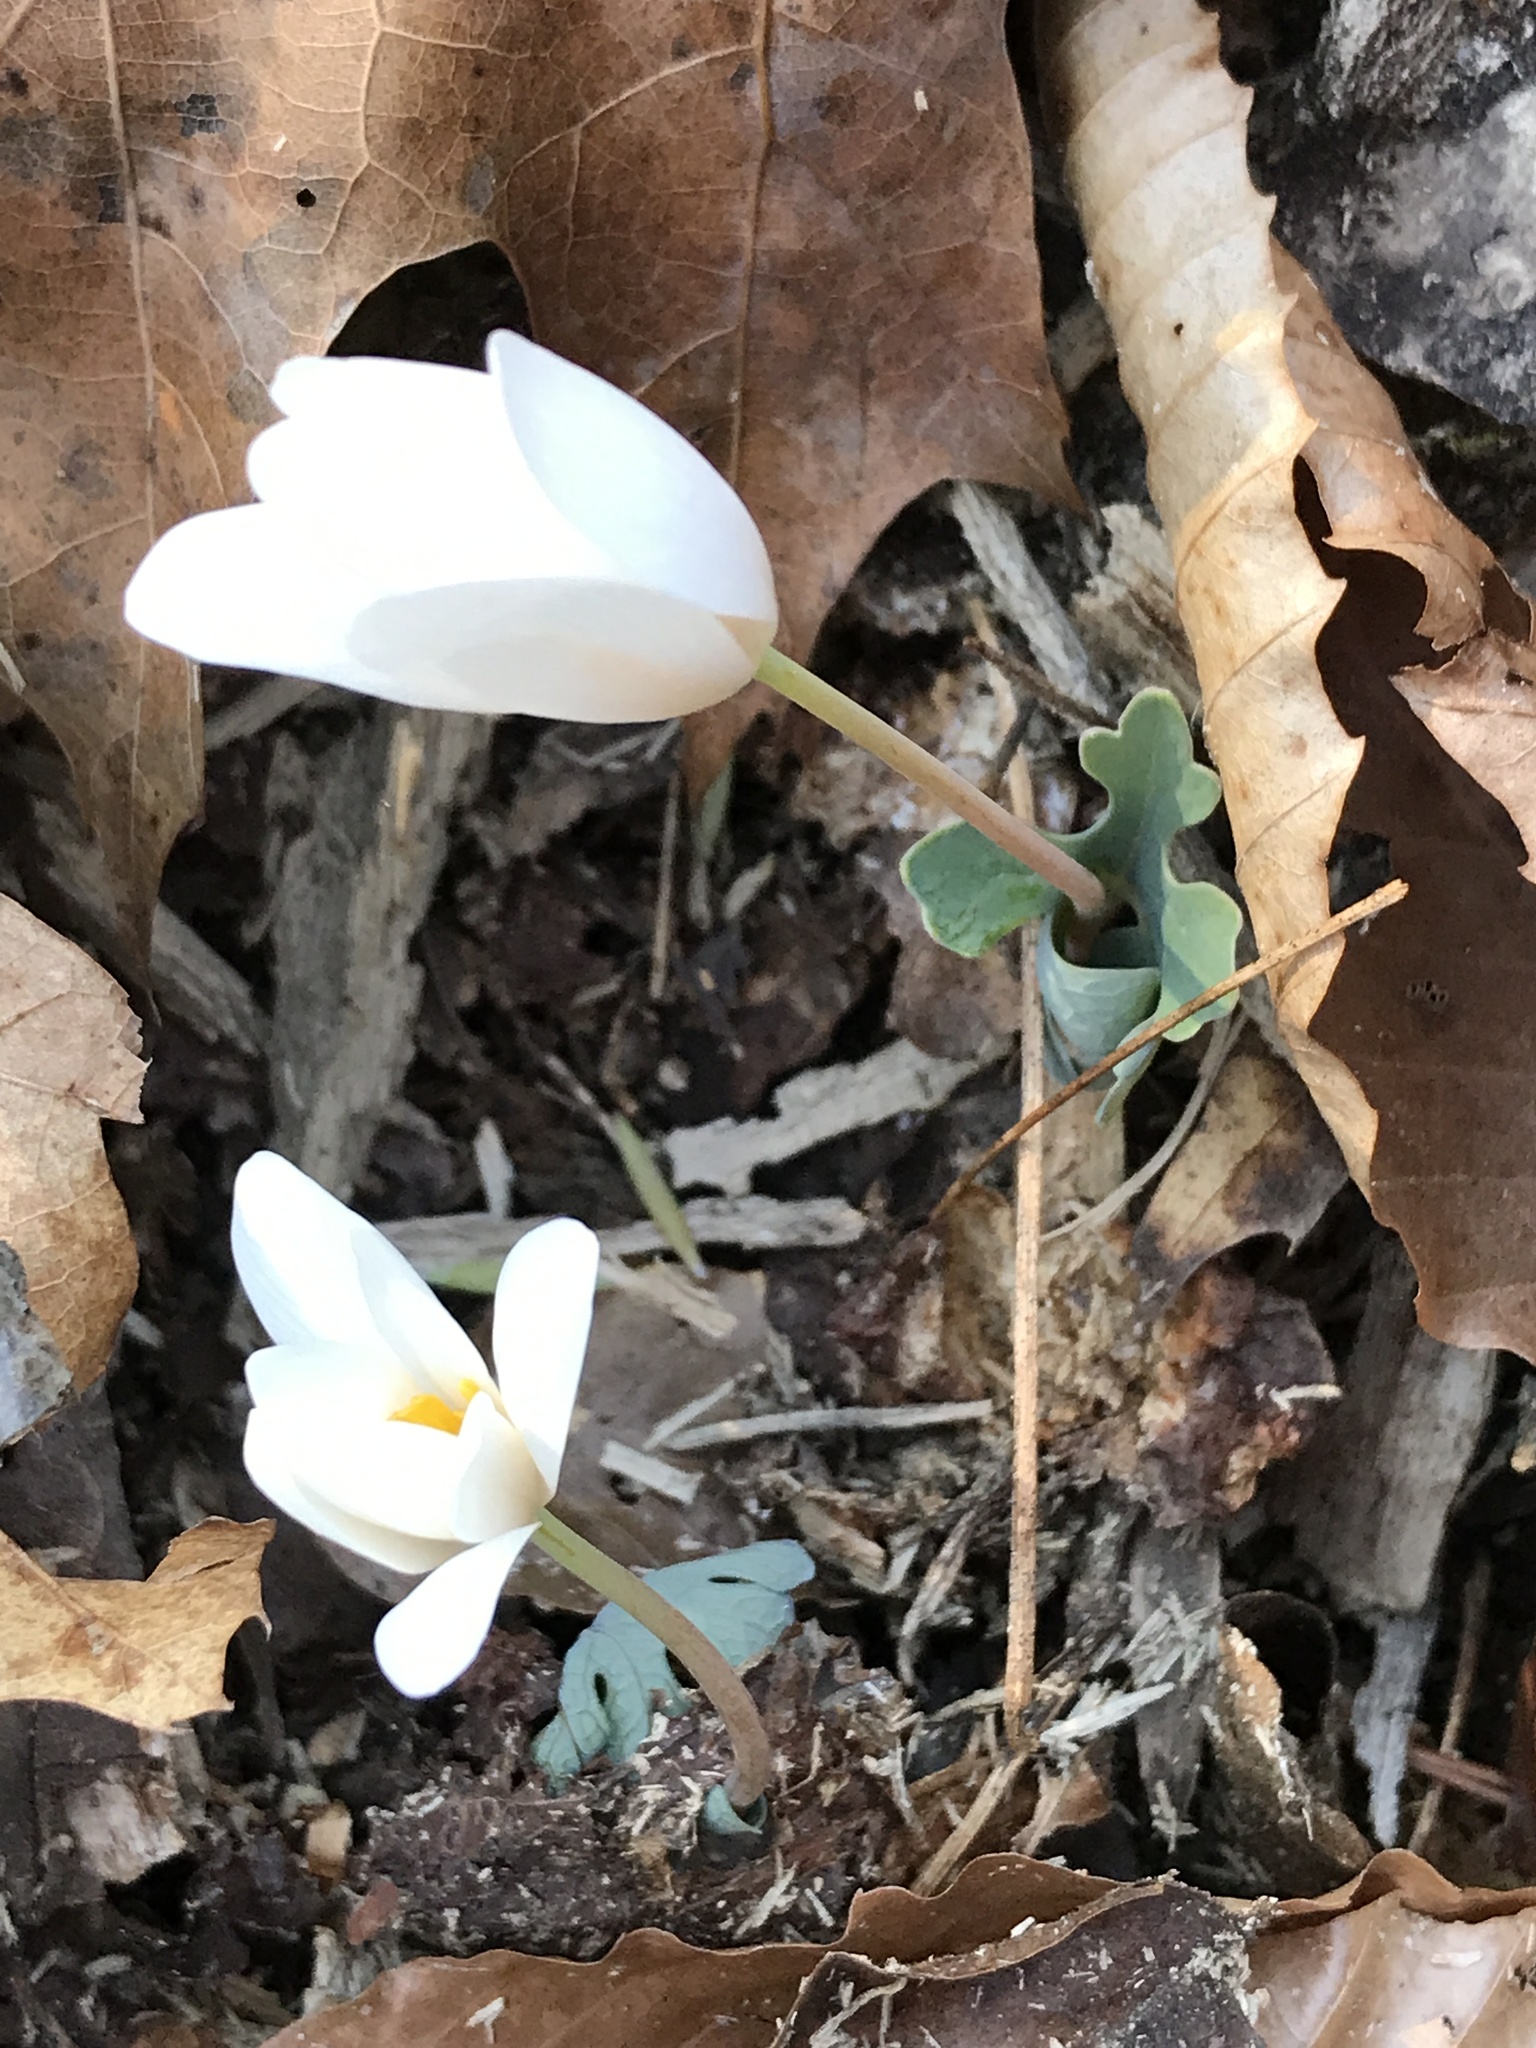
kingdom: Plantae
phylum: Tracheophyta
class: Magnoliopsida
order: Ranunculales
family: Papaveraceae
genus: Sanguinaria
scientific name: Sanguinaria canadensis
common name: Bloodroot
